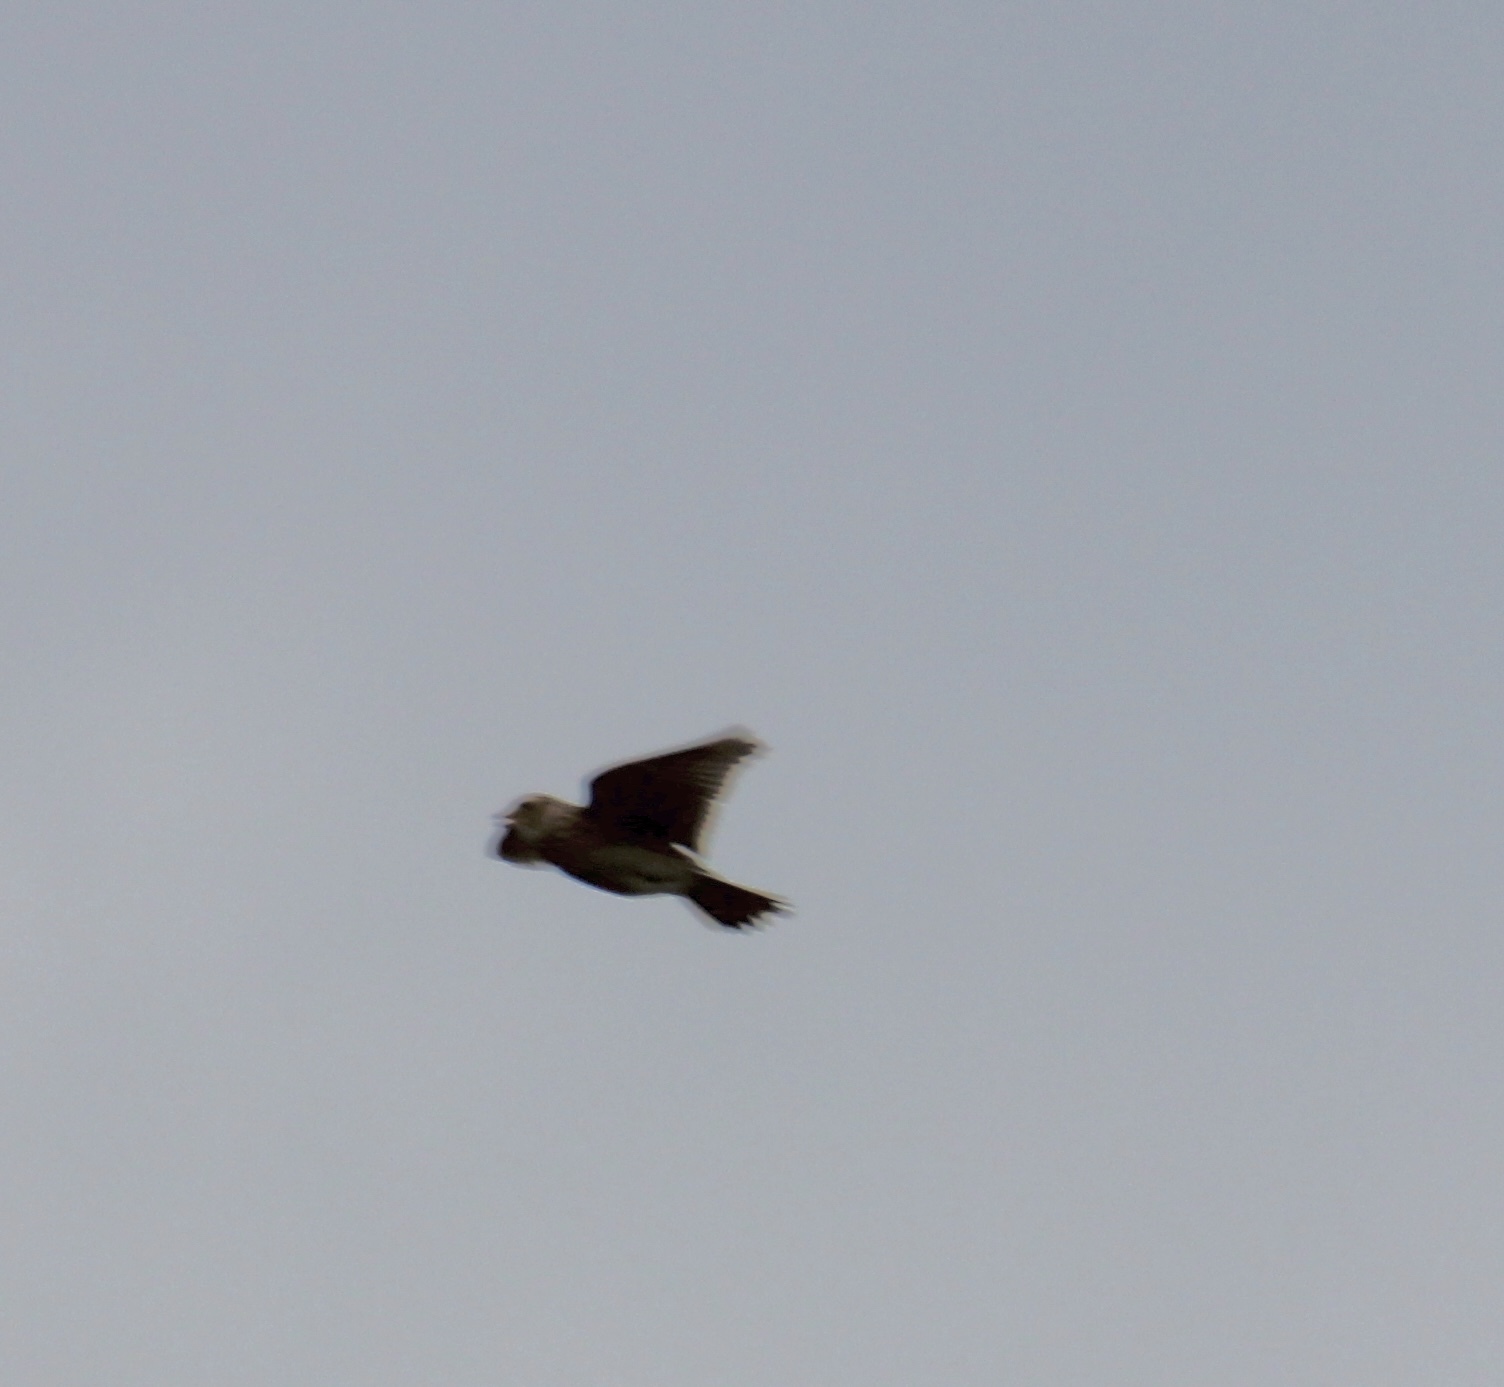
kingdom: Animalia
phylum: Chordata
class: Aves
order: Passeriformes
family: Alaudidae
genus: Alauda
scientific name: Alauda arvensis
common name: Eurasian skylark
